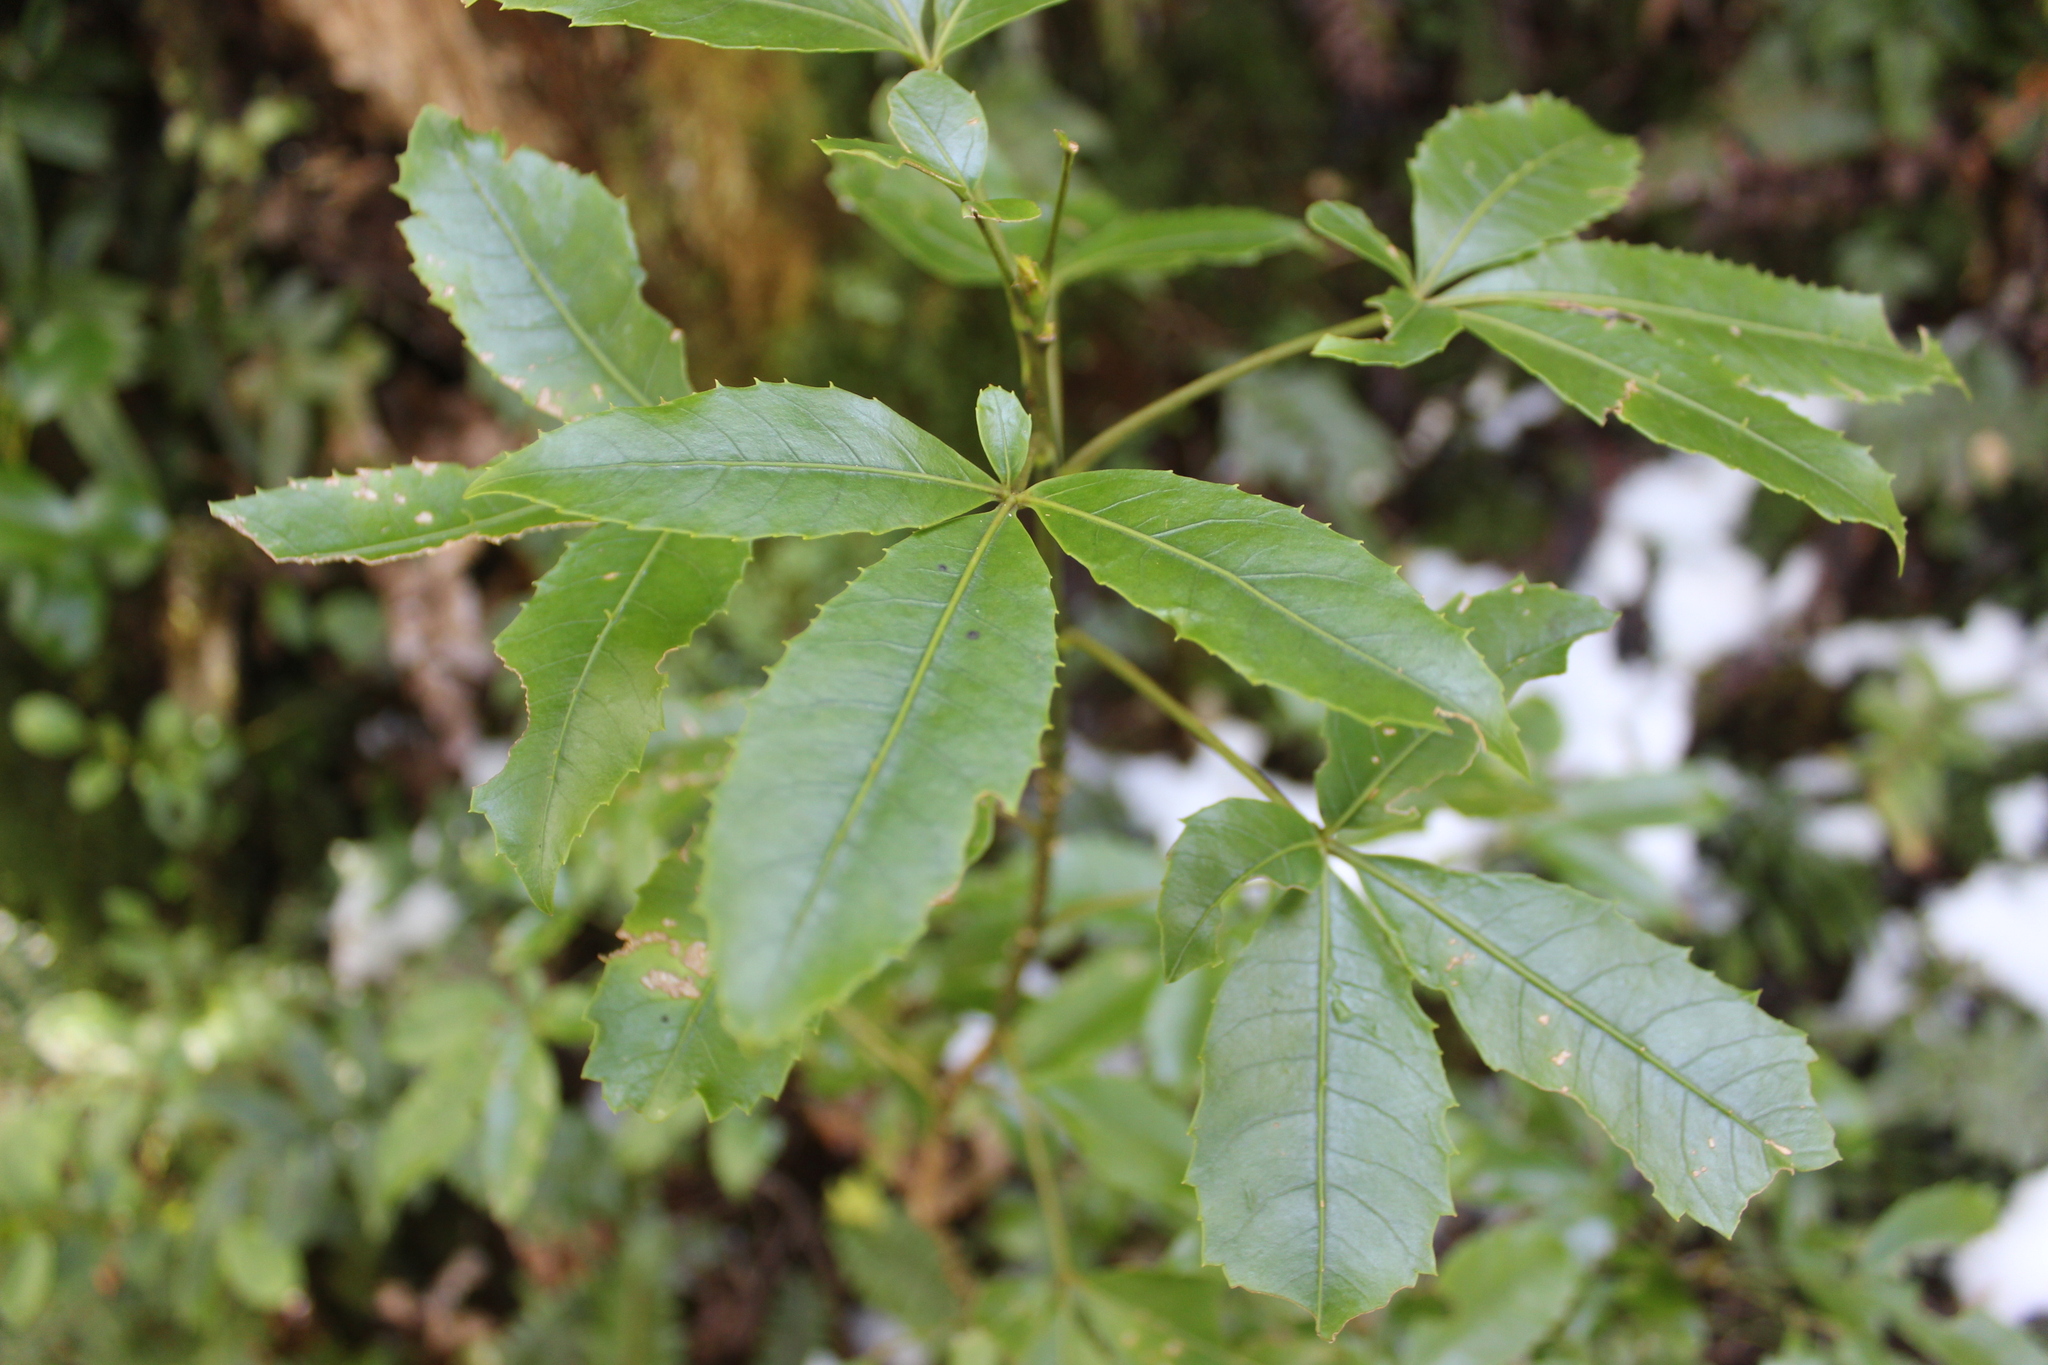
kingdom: Plantae
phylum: Tracheophyta
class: Magnoliopsida
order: Apiales
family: Araliaceae
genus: Neopanax
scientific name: Neopanax colensoi
